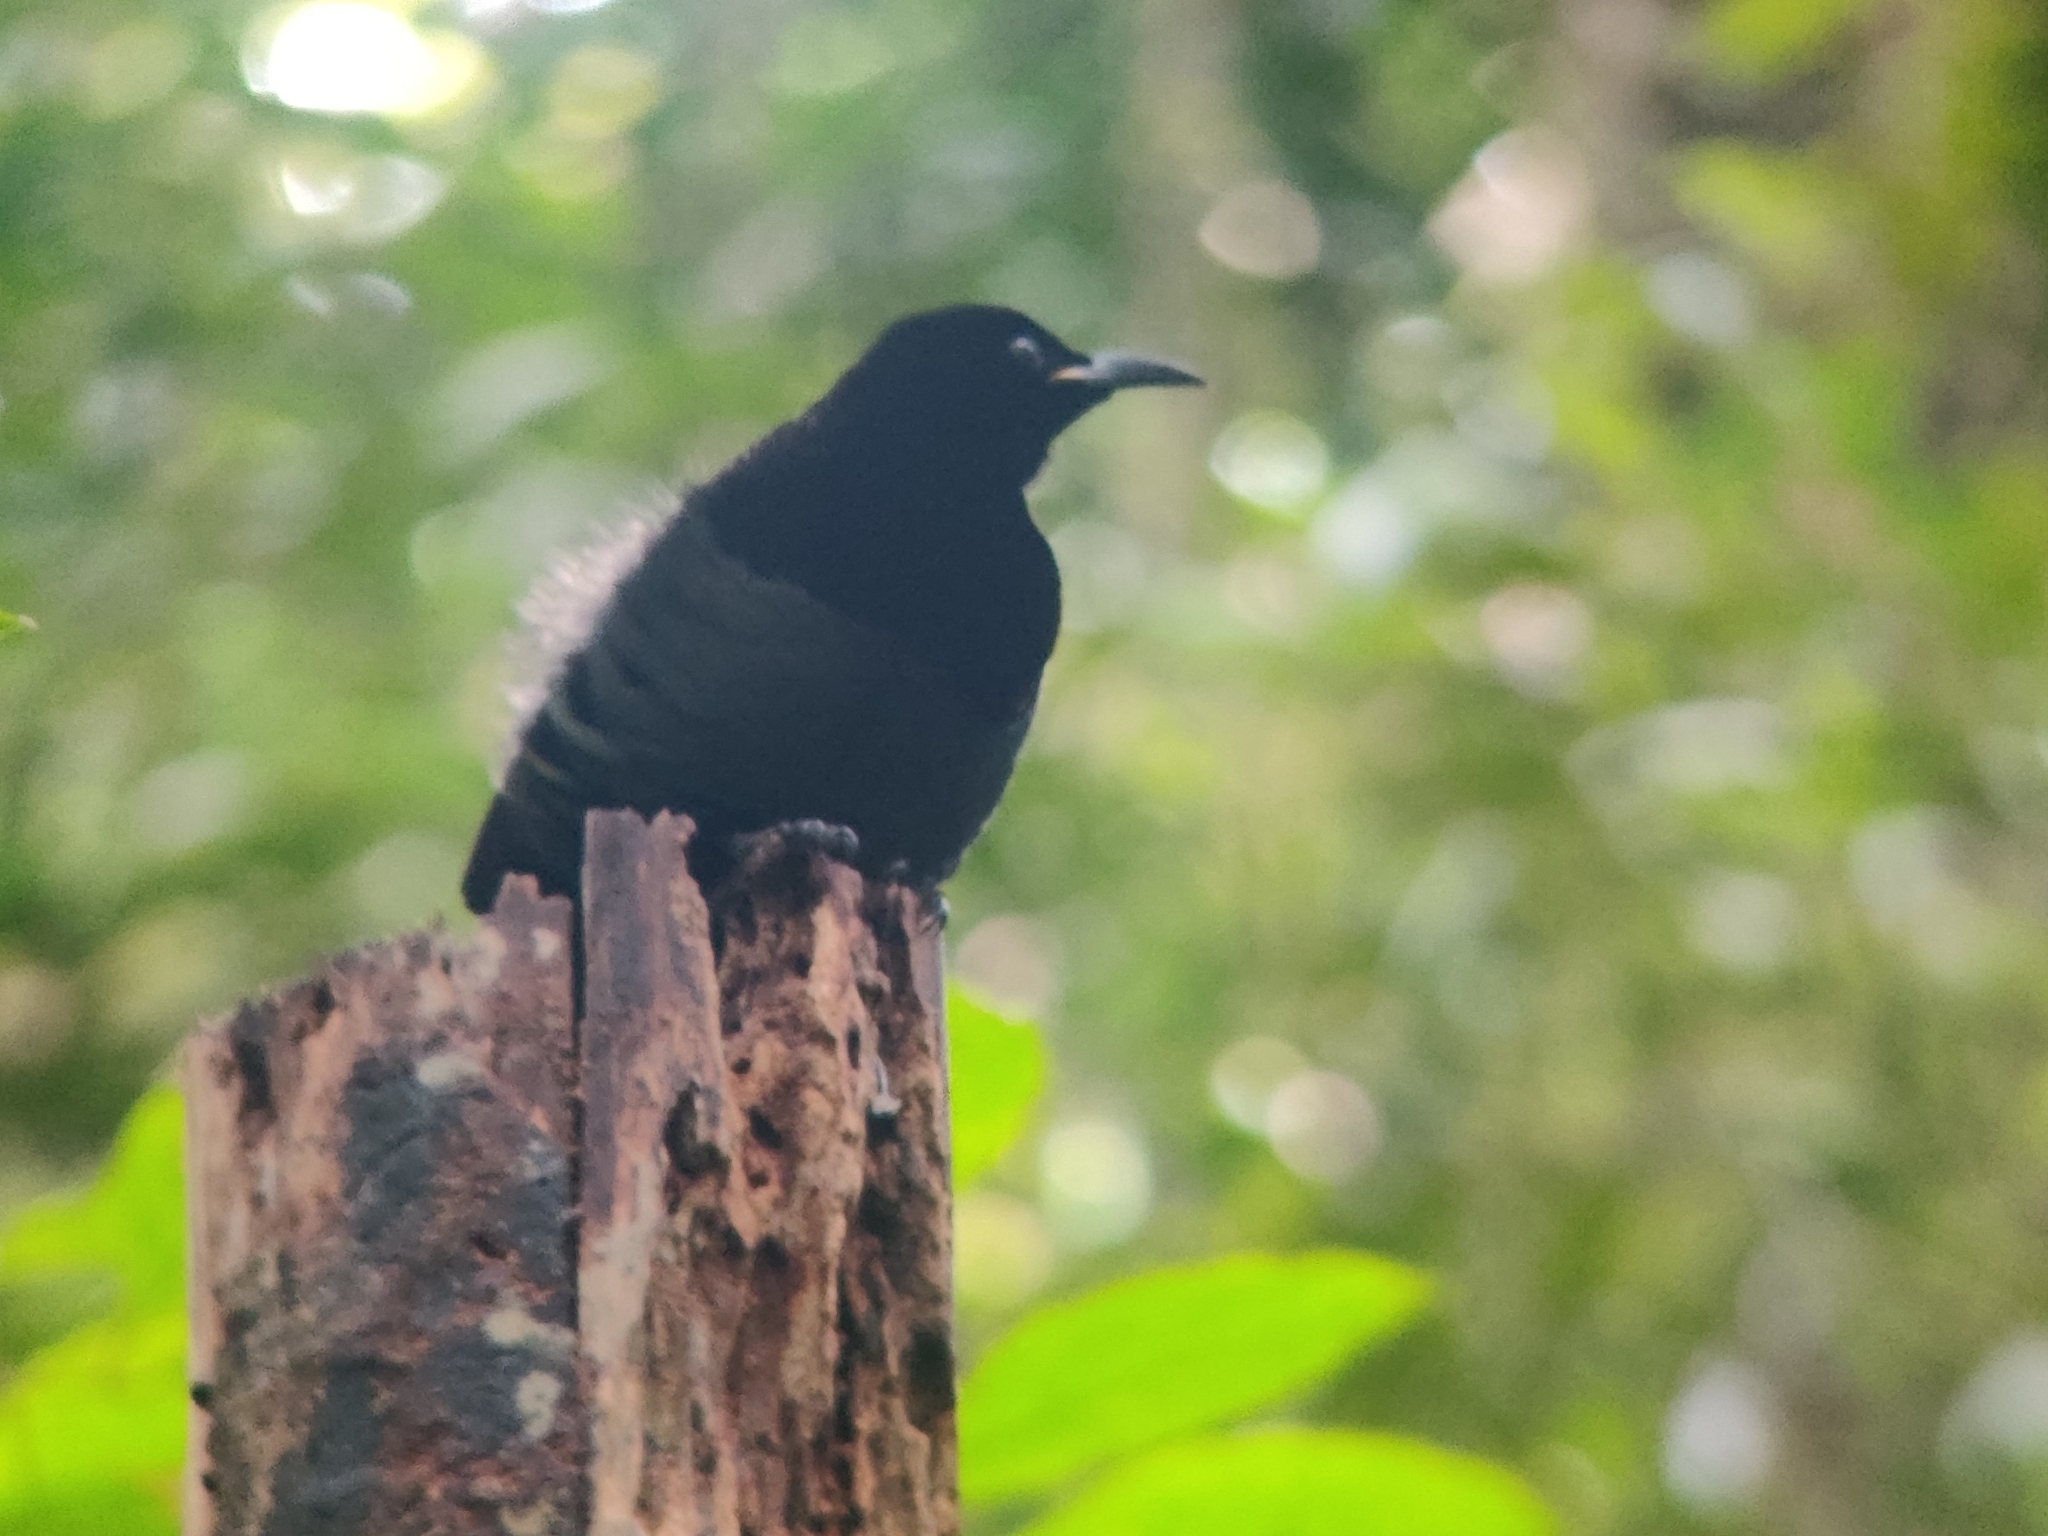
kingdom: Animalia
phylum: Chordata
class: Aves
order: Passeriformes
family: Paradisaeidae
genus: Ptiloris
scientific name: Ptiloris victoriae
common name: Victoria's riflebird
